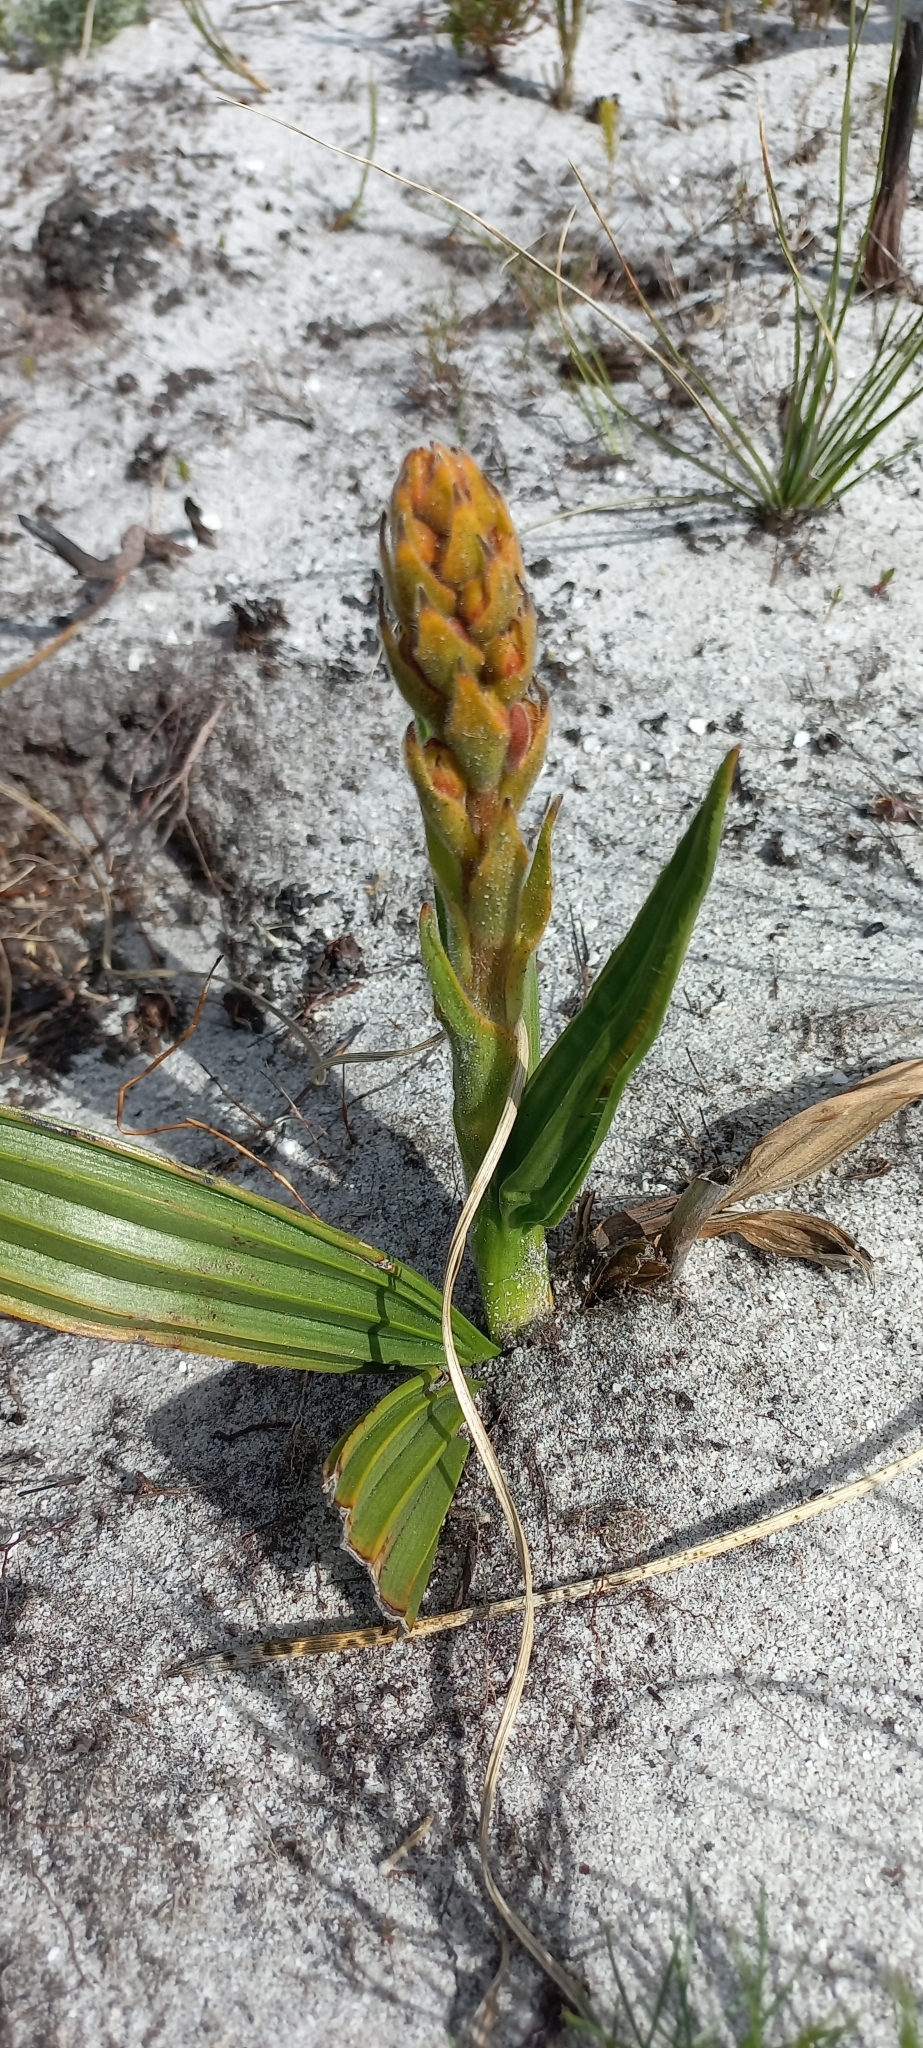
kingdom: Plantae
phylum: Tracheophyta
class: Liliopsida
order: Commelinales
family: Haemodoraceae
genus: Wachendorfia
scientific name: Wachendorfia paniculata
